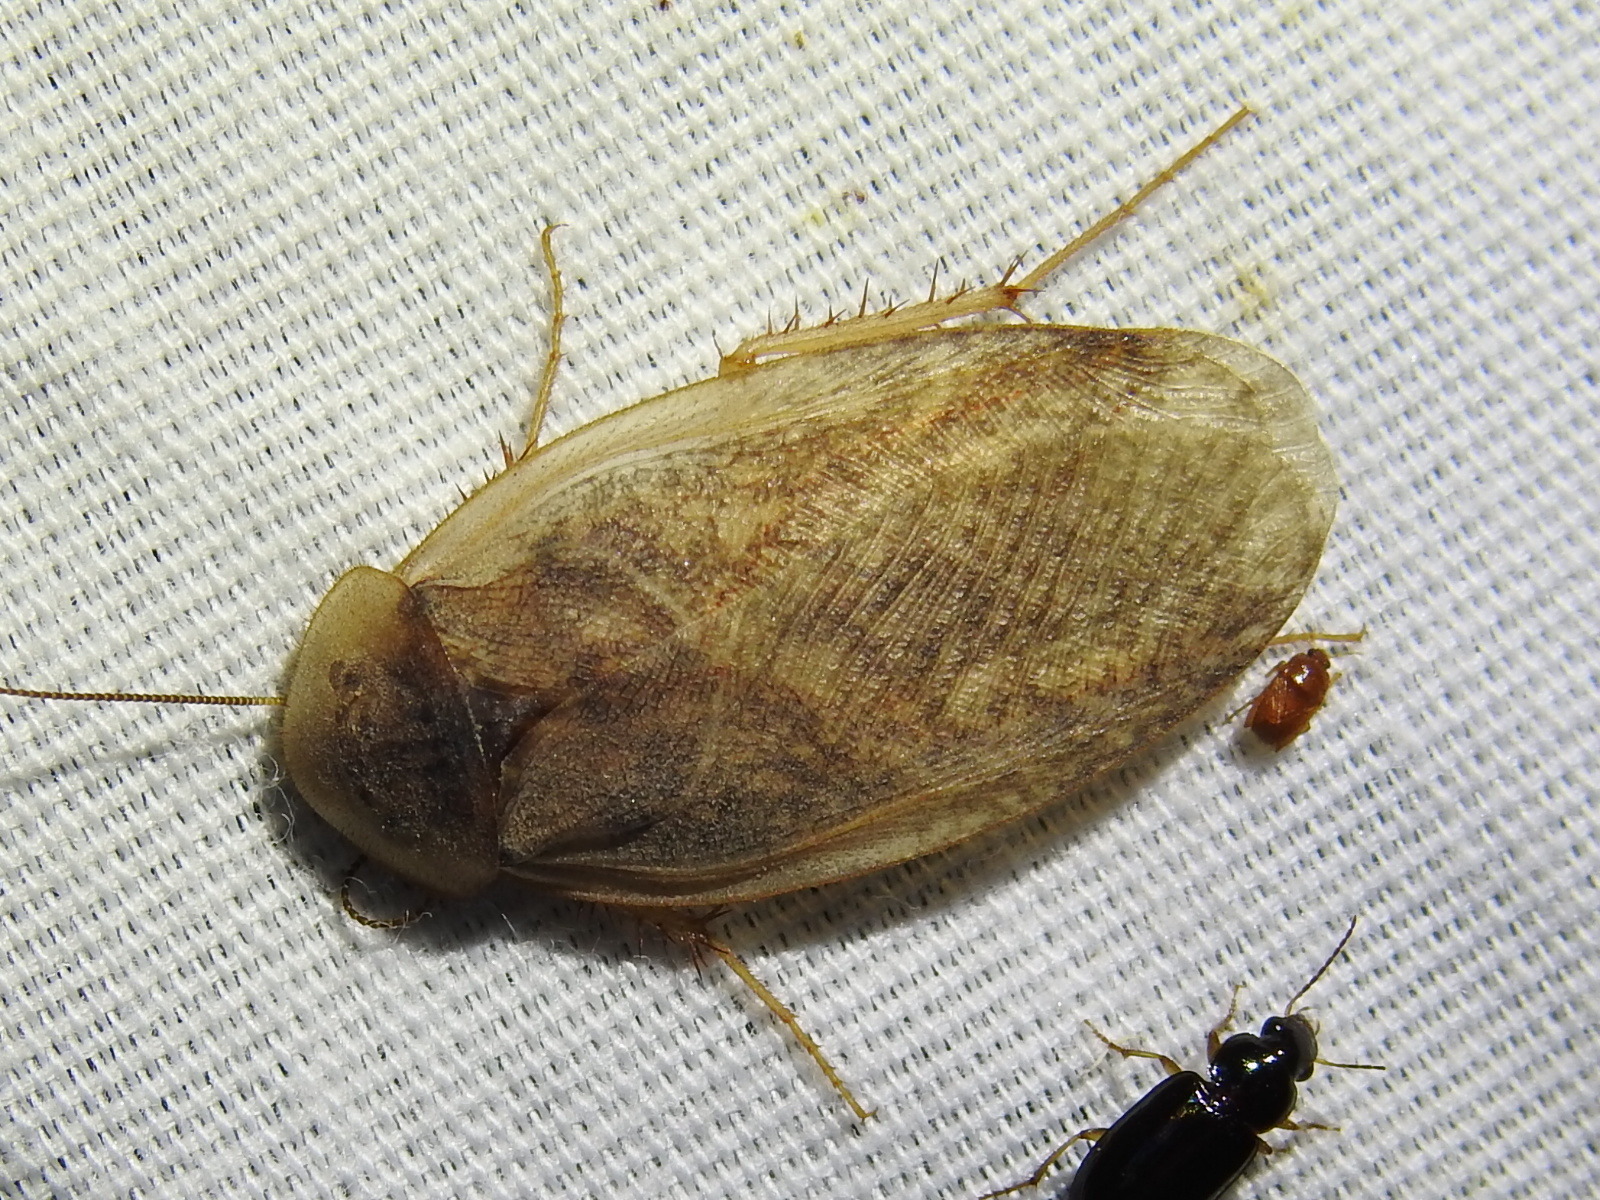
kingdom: Animalia
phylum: Arthropoda
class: Insecta
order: Blattodea
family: Corydiidae
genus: Arenivaga
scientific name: Arenivaga bolliana
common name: Boll's sand cockroach
